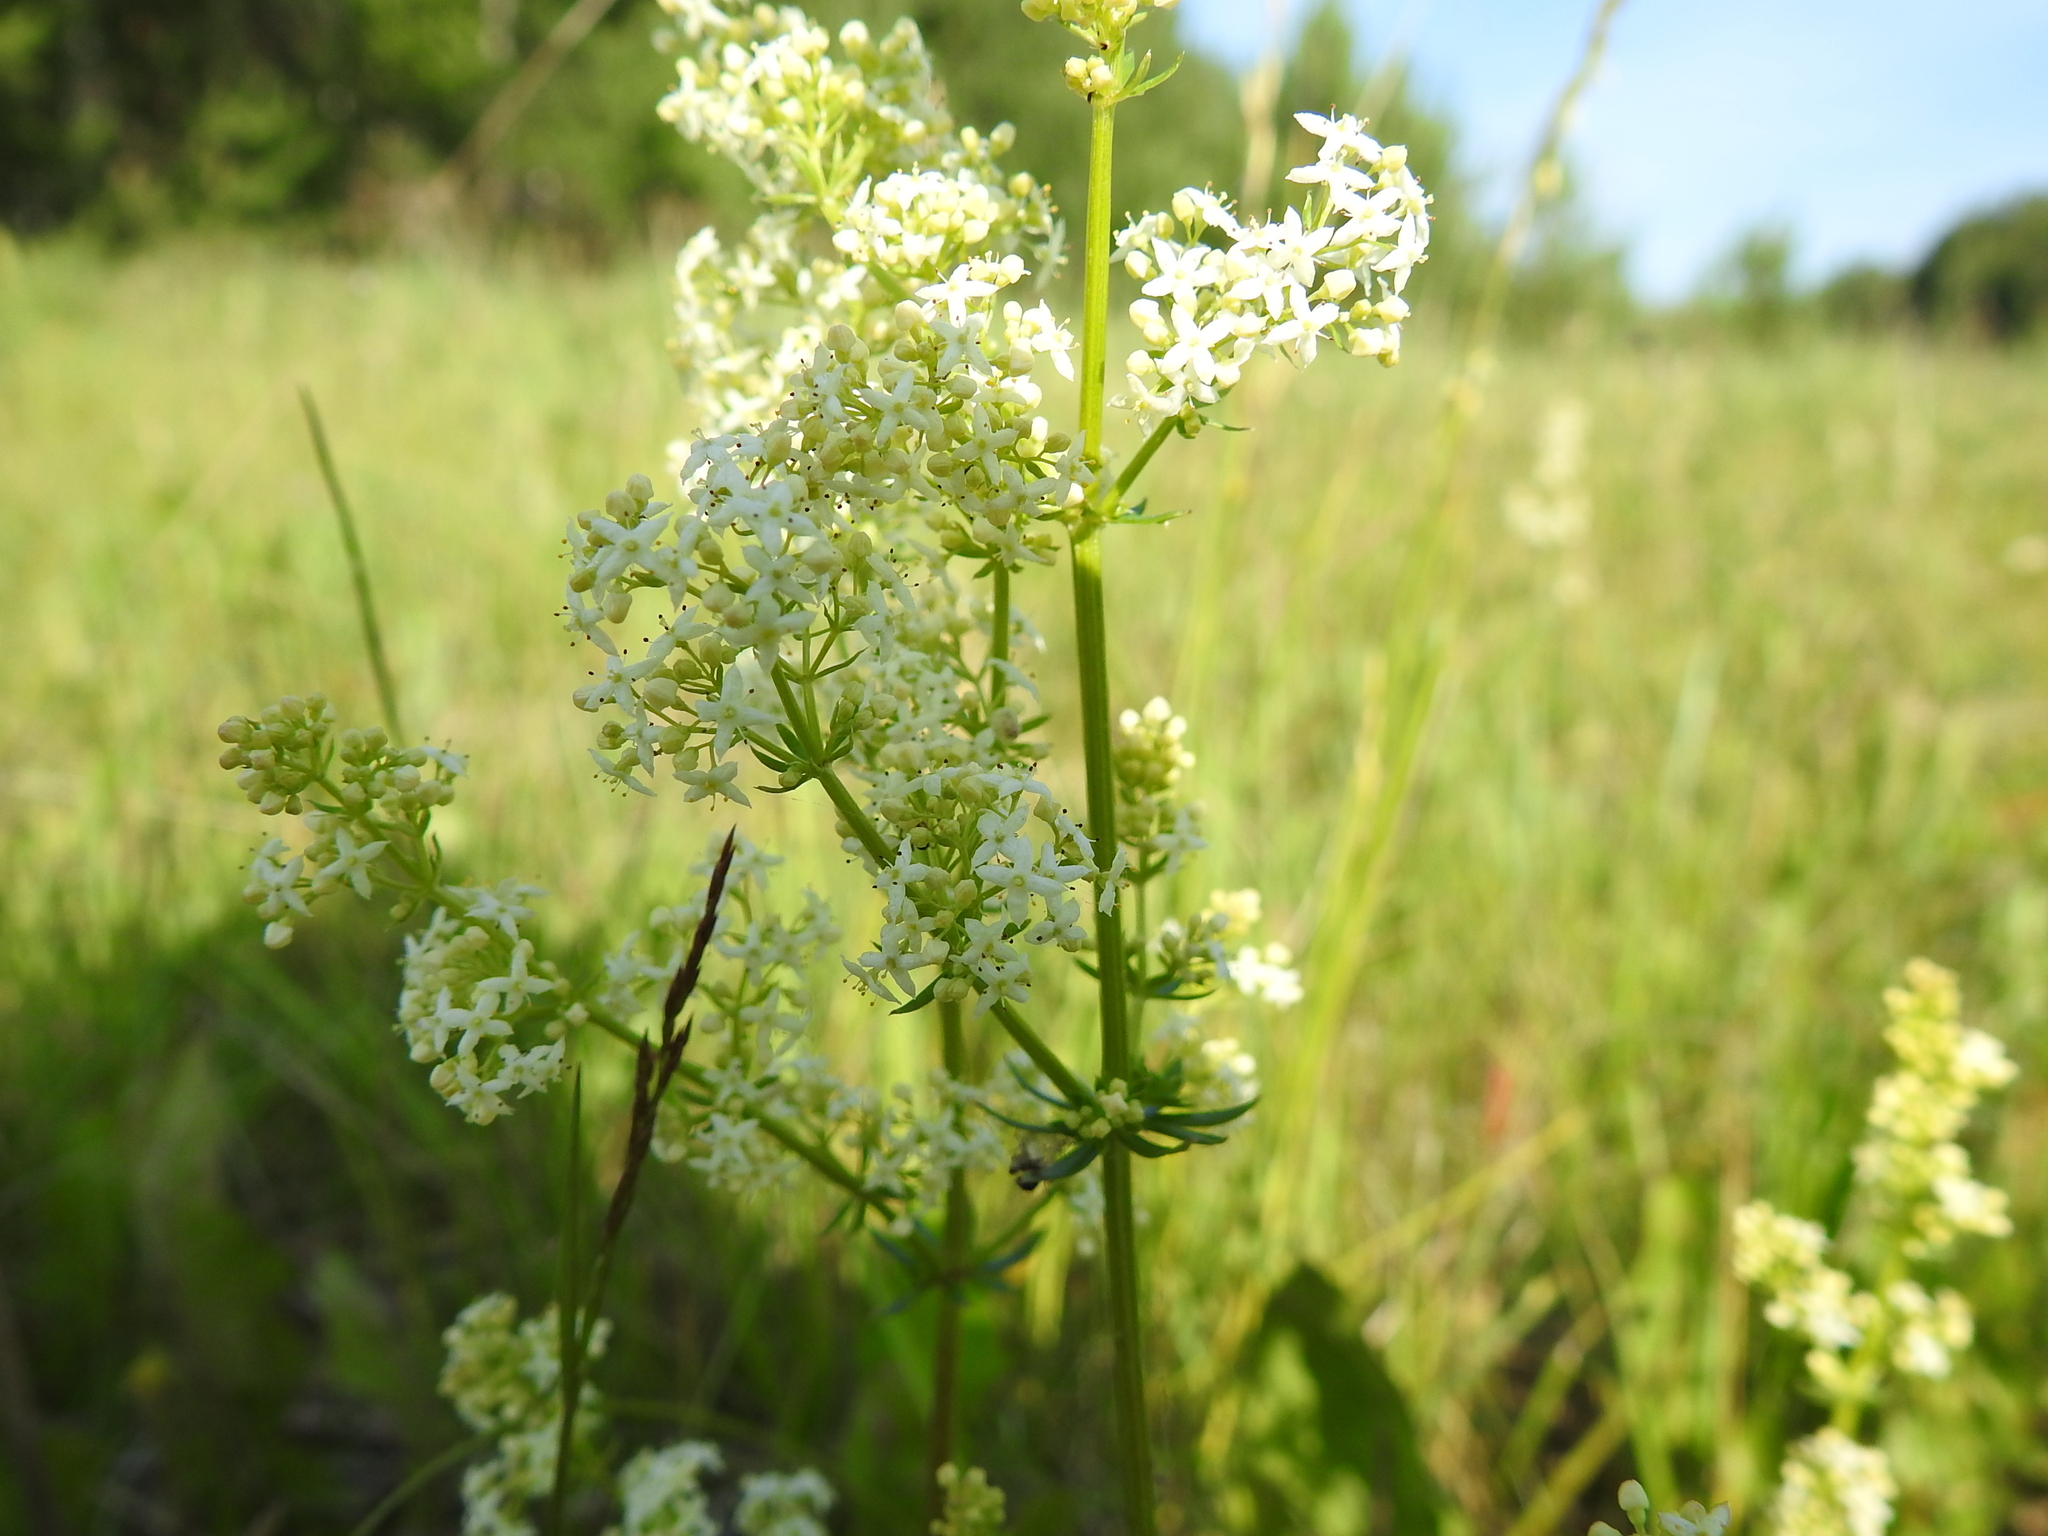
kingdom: Plantae
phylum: Tracheophyta
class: Magnoliopsida
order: Gentianales
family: Rubiaceae
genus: Galium
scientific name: Galium mollugo
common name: Hedge bedstraw
